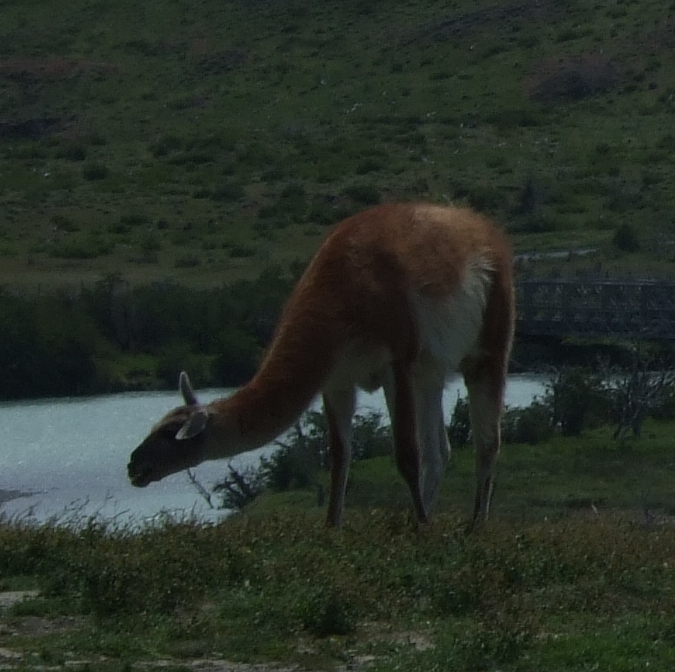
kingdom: Animalia
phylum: Chordata
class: Mammalia
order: Artiodactyla
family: Camelidae
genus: Lama
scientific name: Lama glama
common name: Llama
